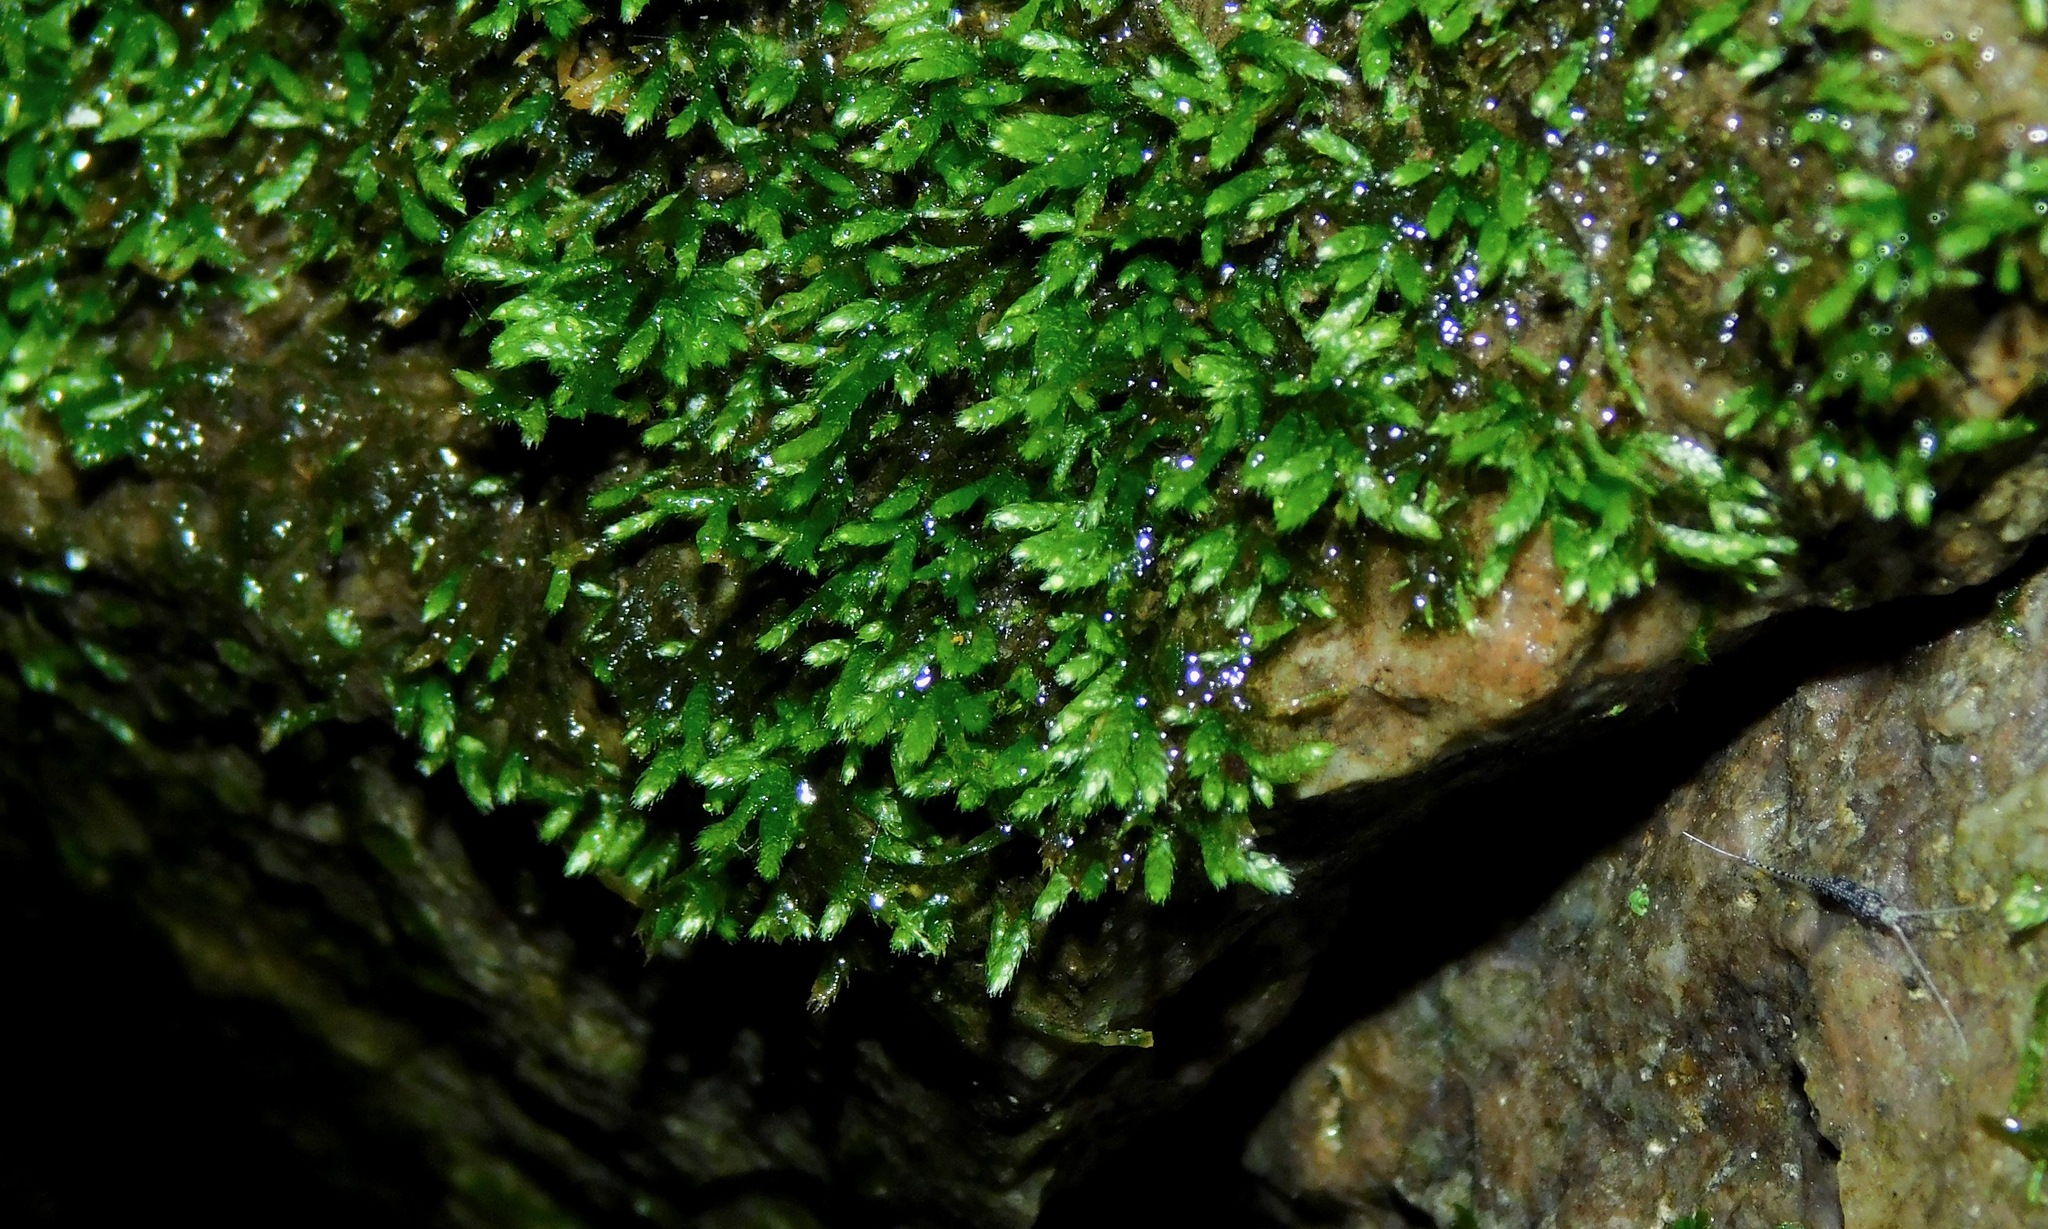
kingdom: Plantae
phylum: Bryophyta
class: Bryopsida
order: Hypnales
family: Sematophyllaceae
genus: Sematophyllum
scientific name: Sematophyllum demissum
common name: Prostrate feather-moss
